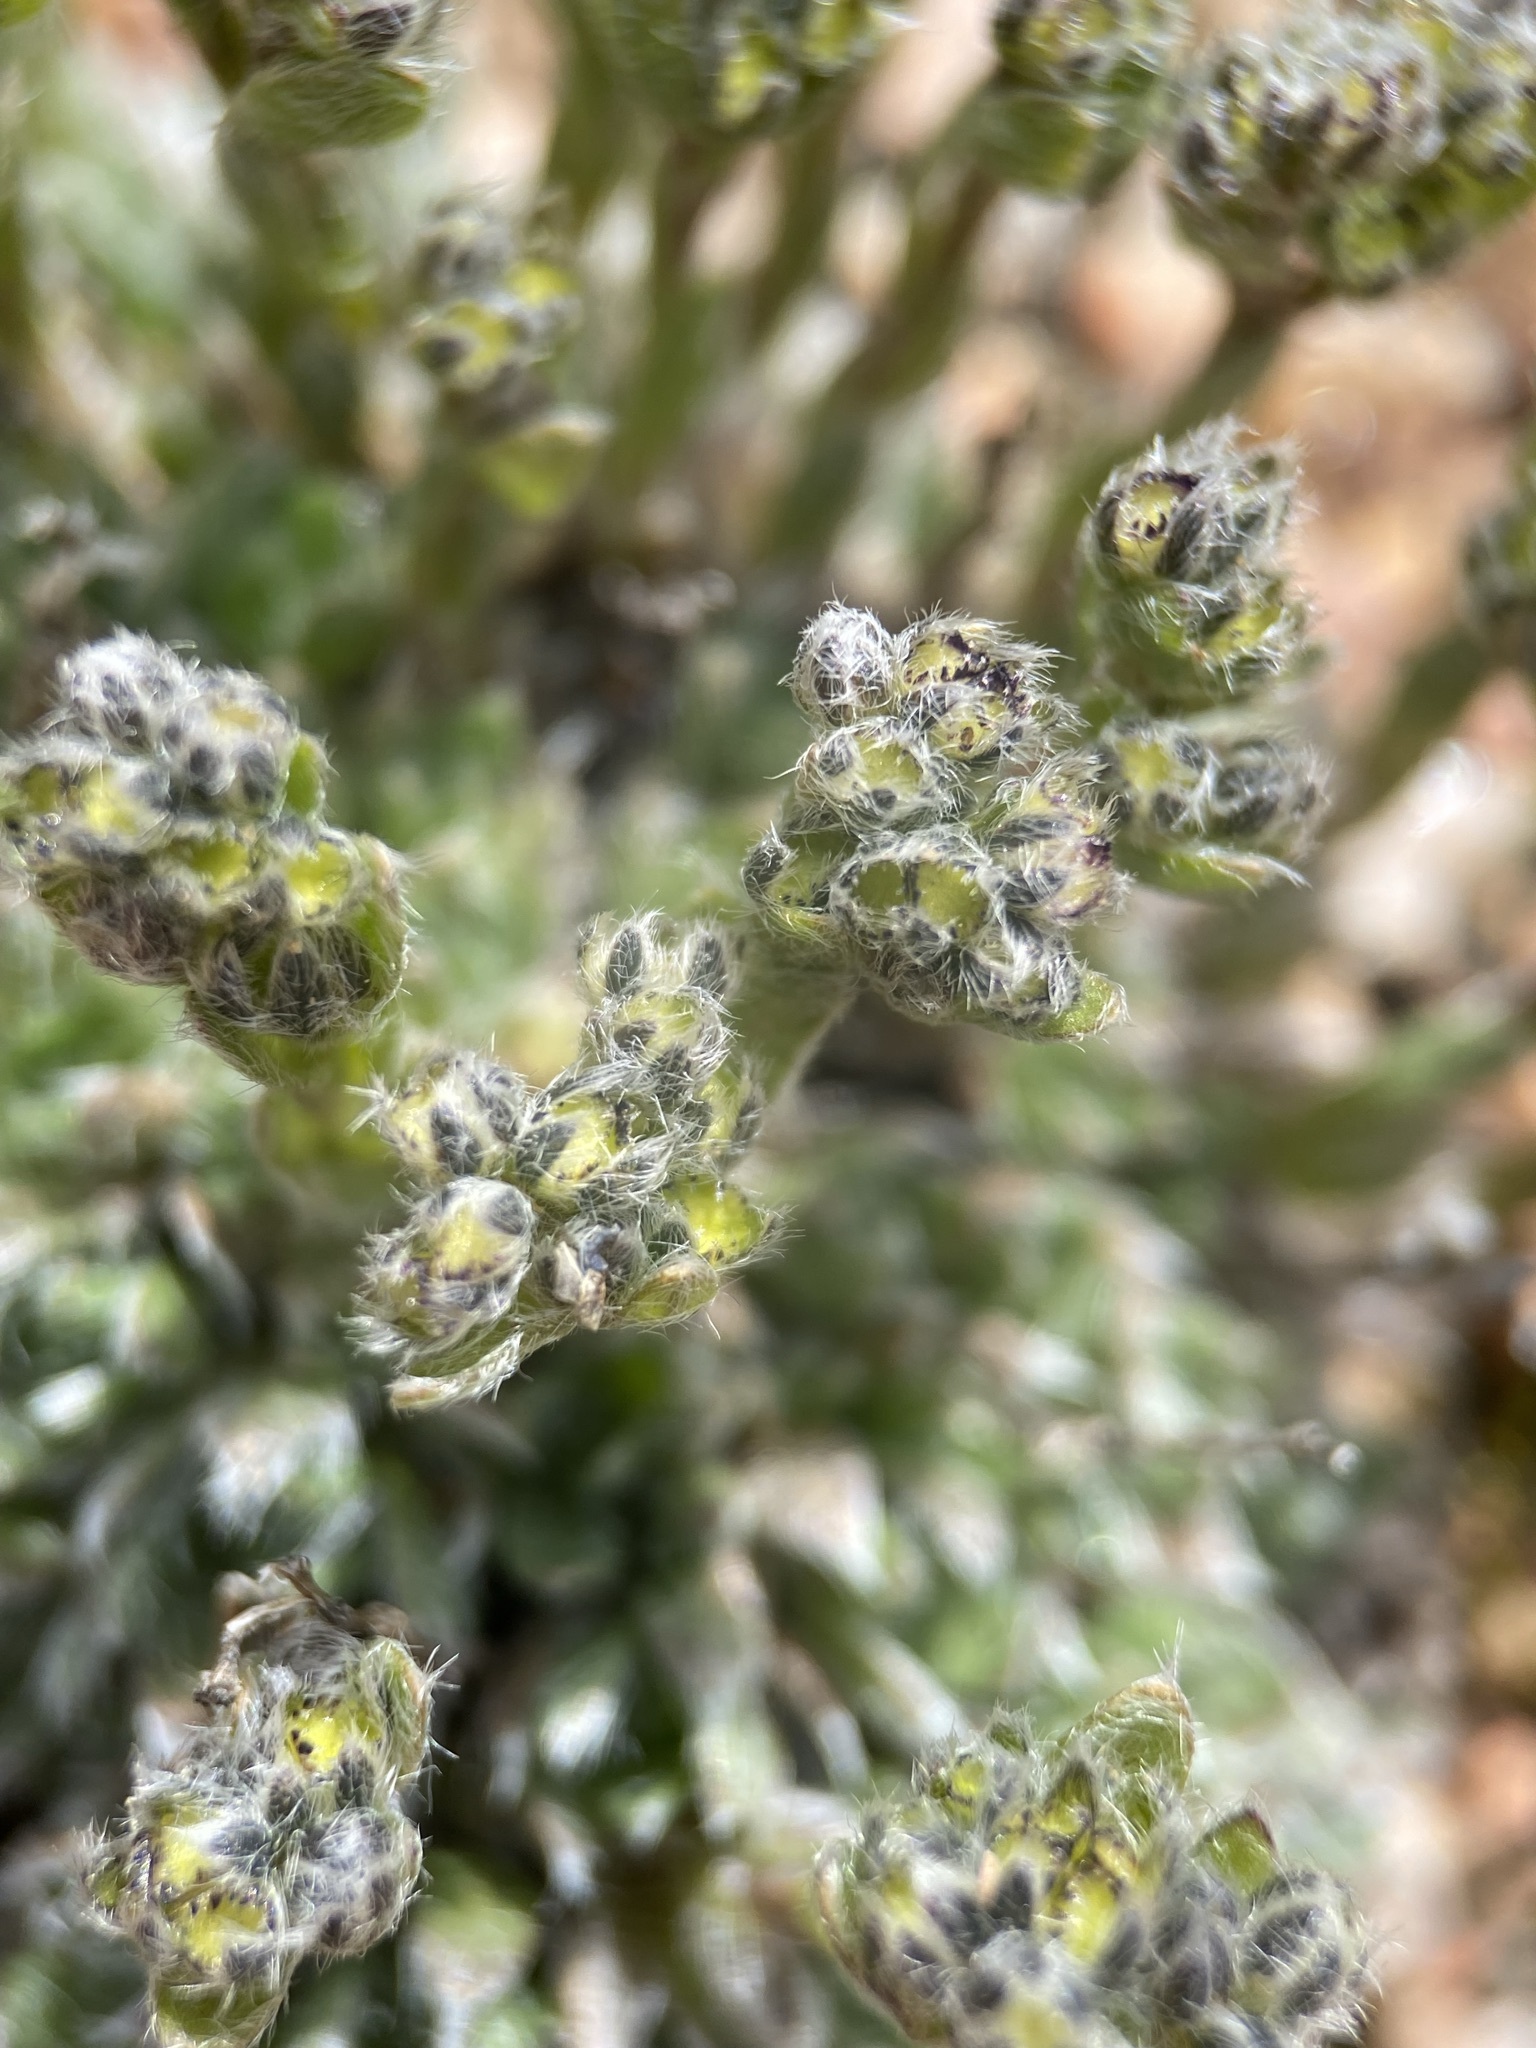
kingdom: Plantae
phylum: Tracheophyta
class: Magnoliopsida
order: Boraginales
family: Boraginaceae
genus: Eritrichium
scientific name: Eritrichium argenteum
